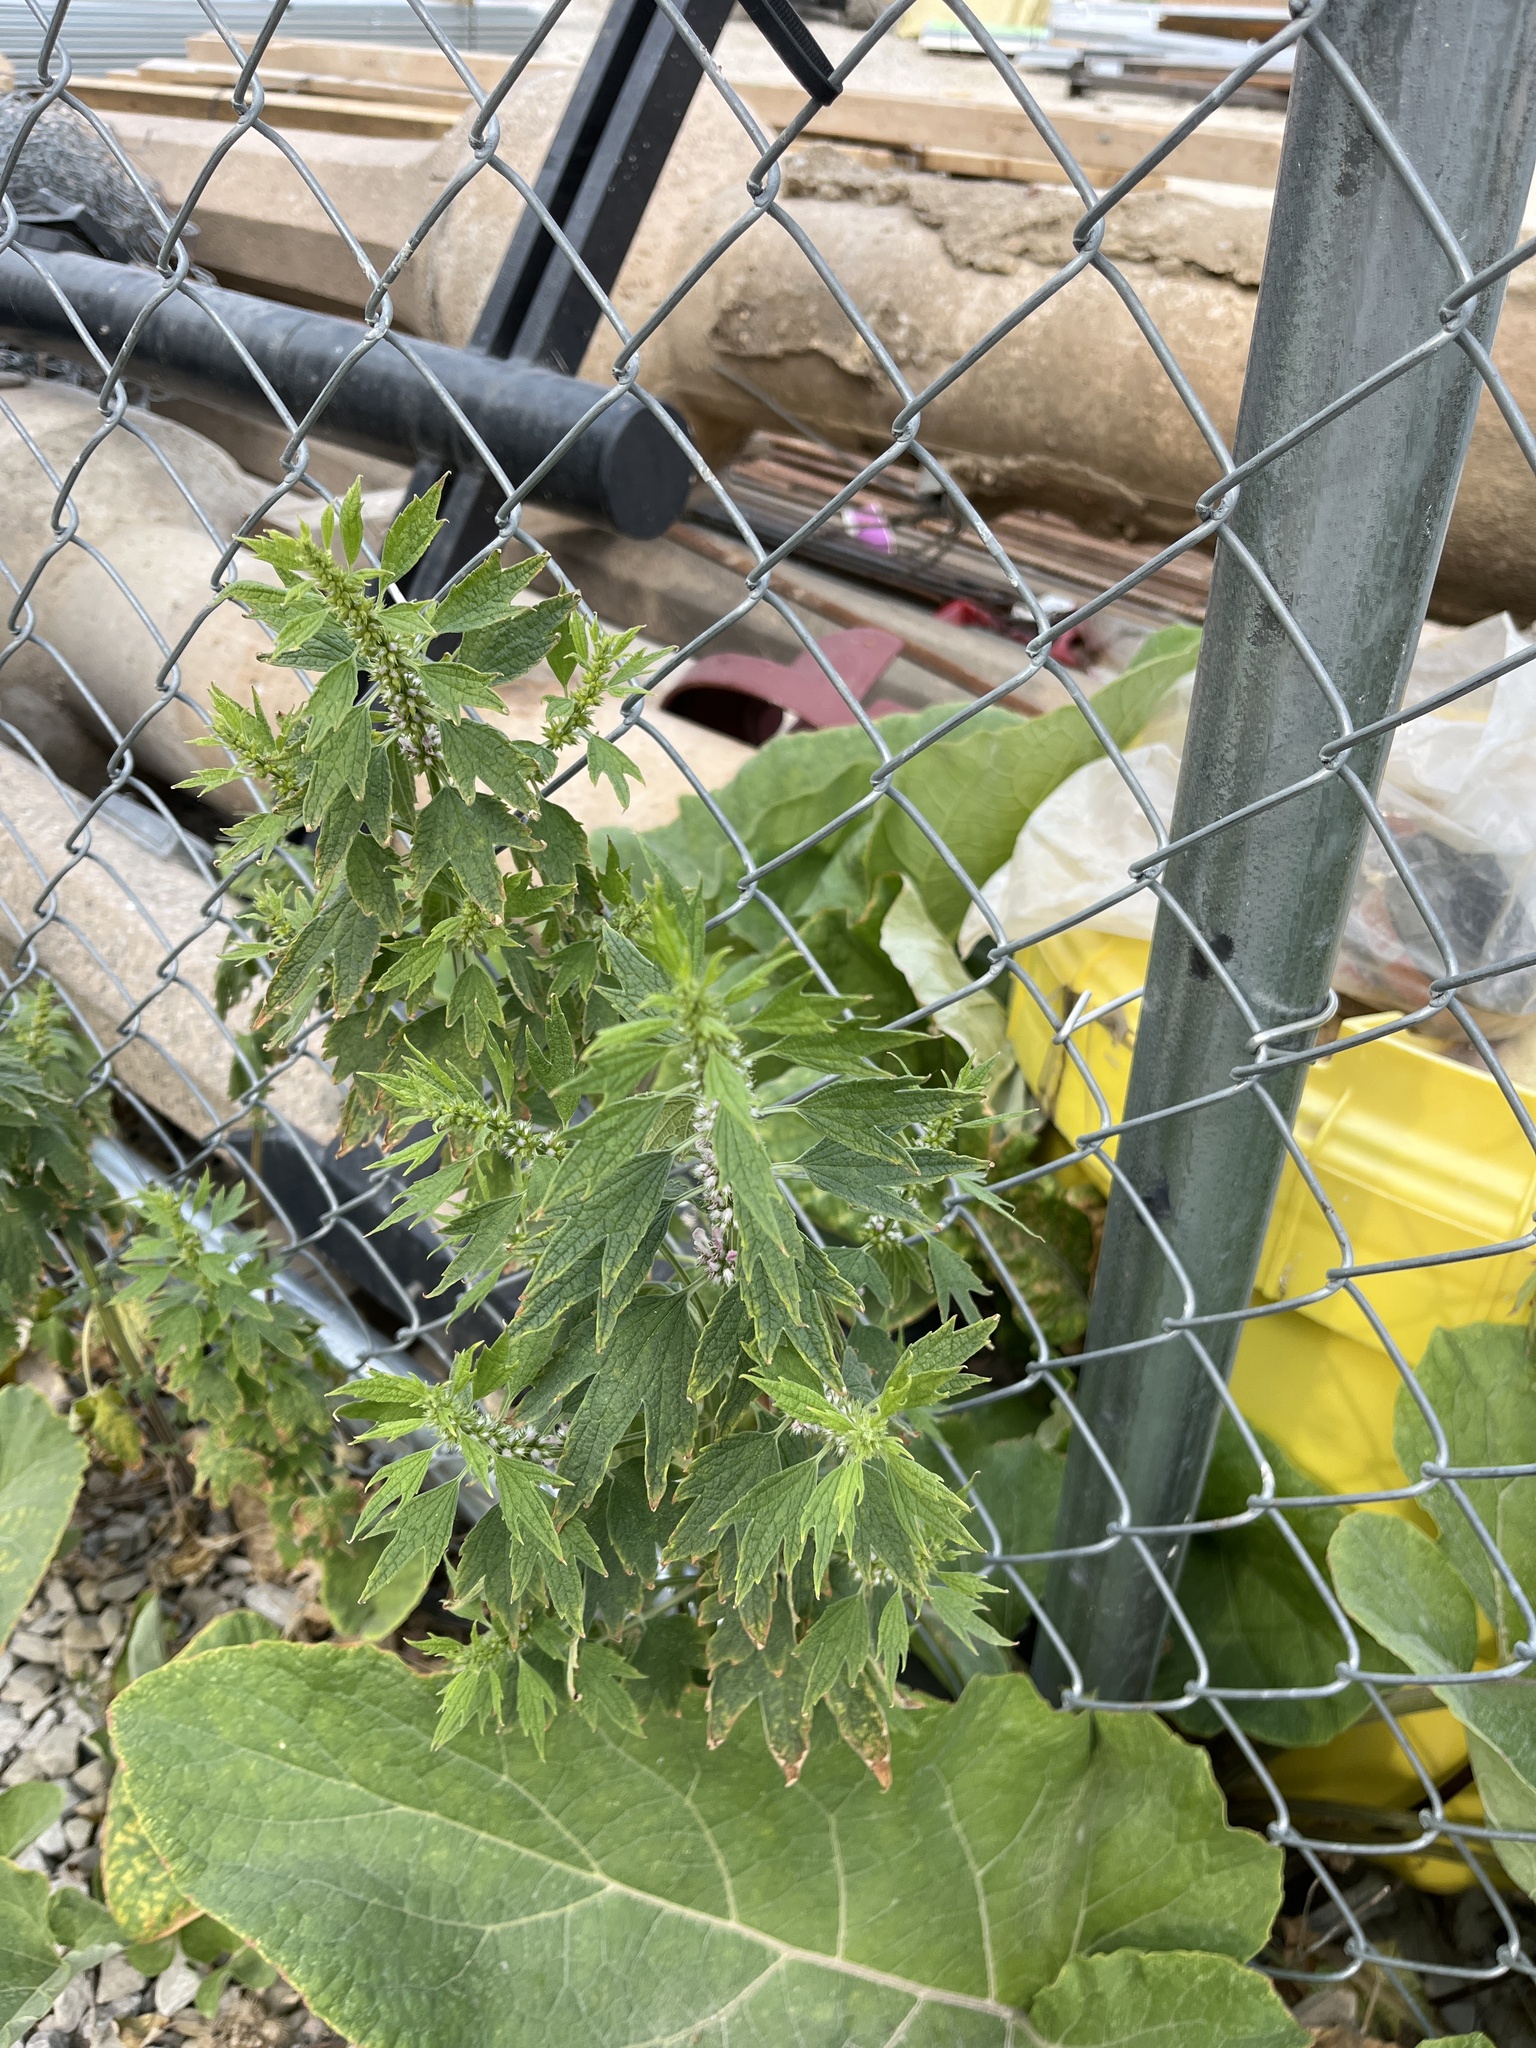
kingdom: Plantae
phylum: Tracheophyta
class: Magnoliopsida
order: Lamiales
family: Lamiaceae
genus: Leonurus
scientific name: Leonurus cardiaca
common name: Motherwort
